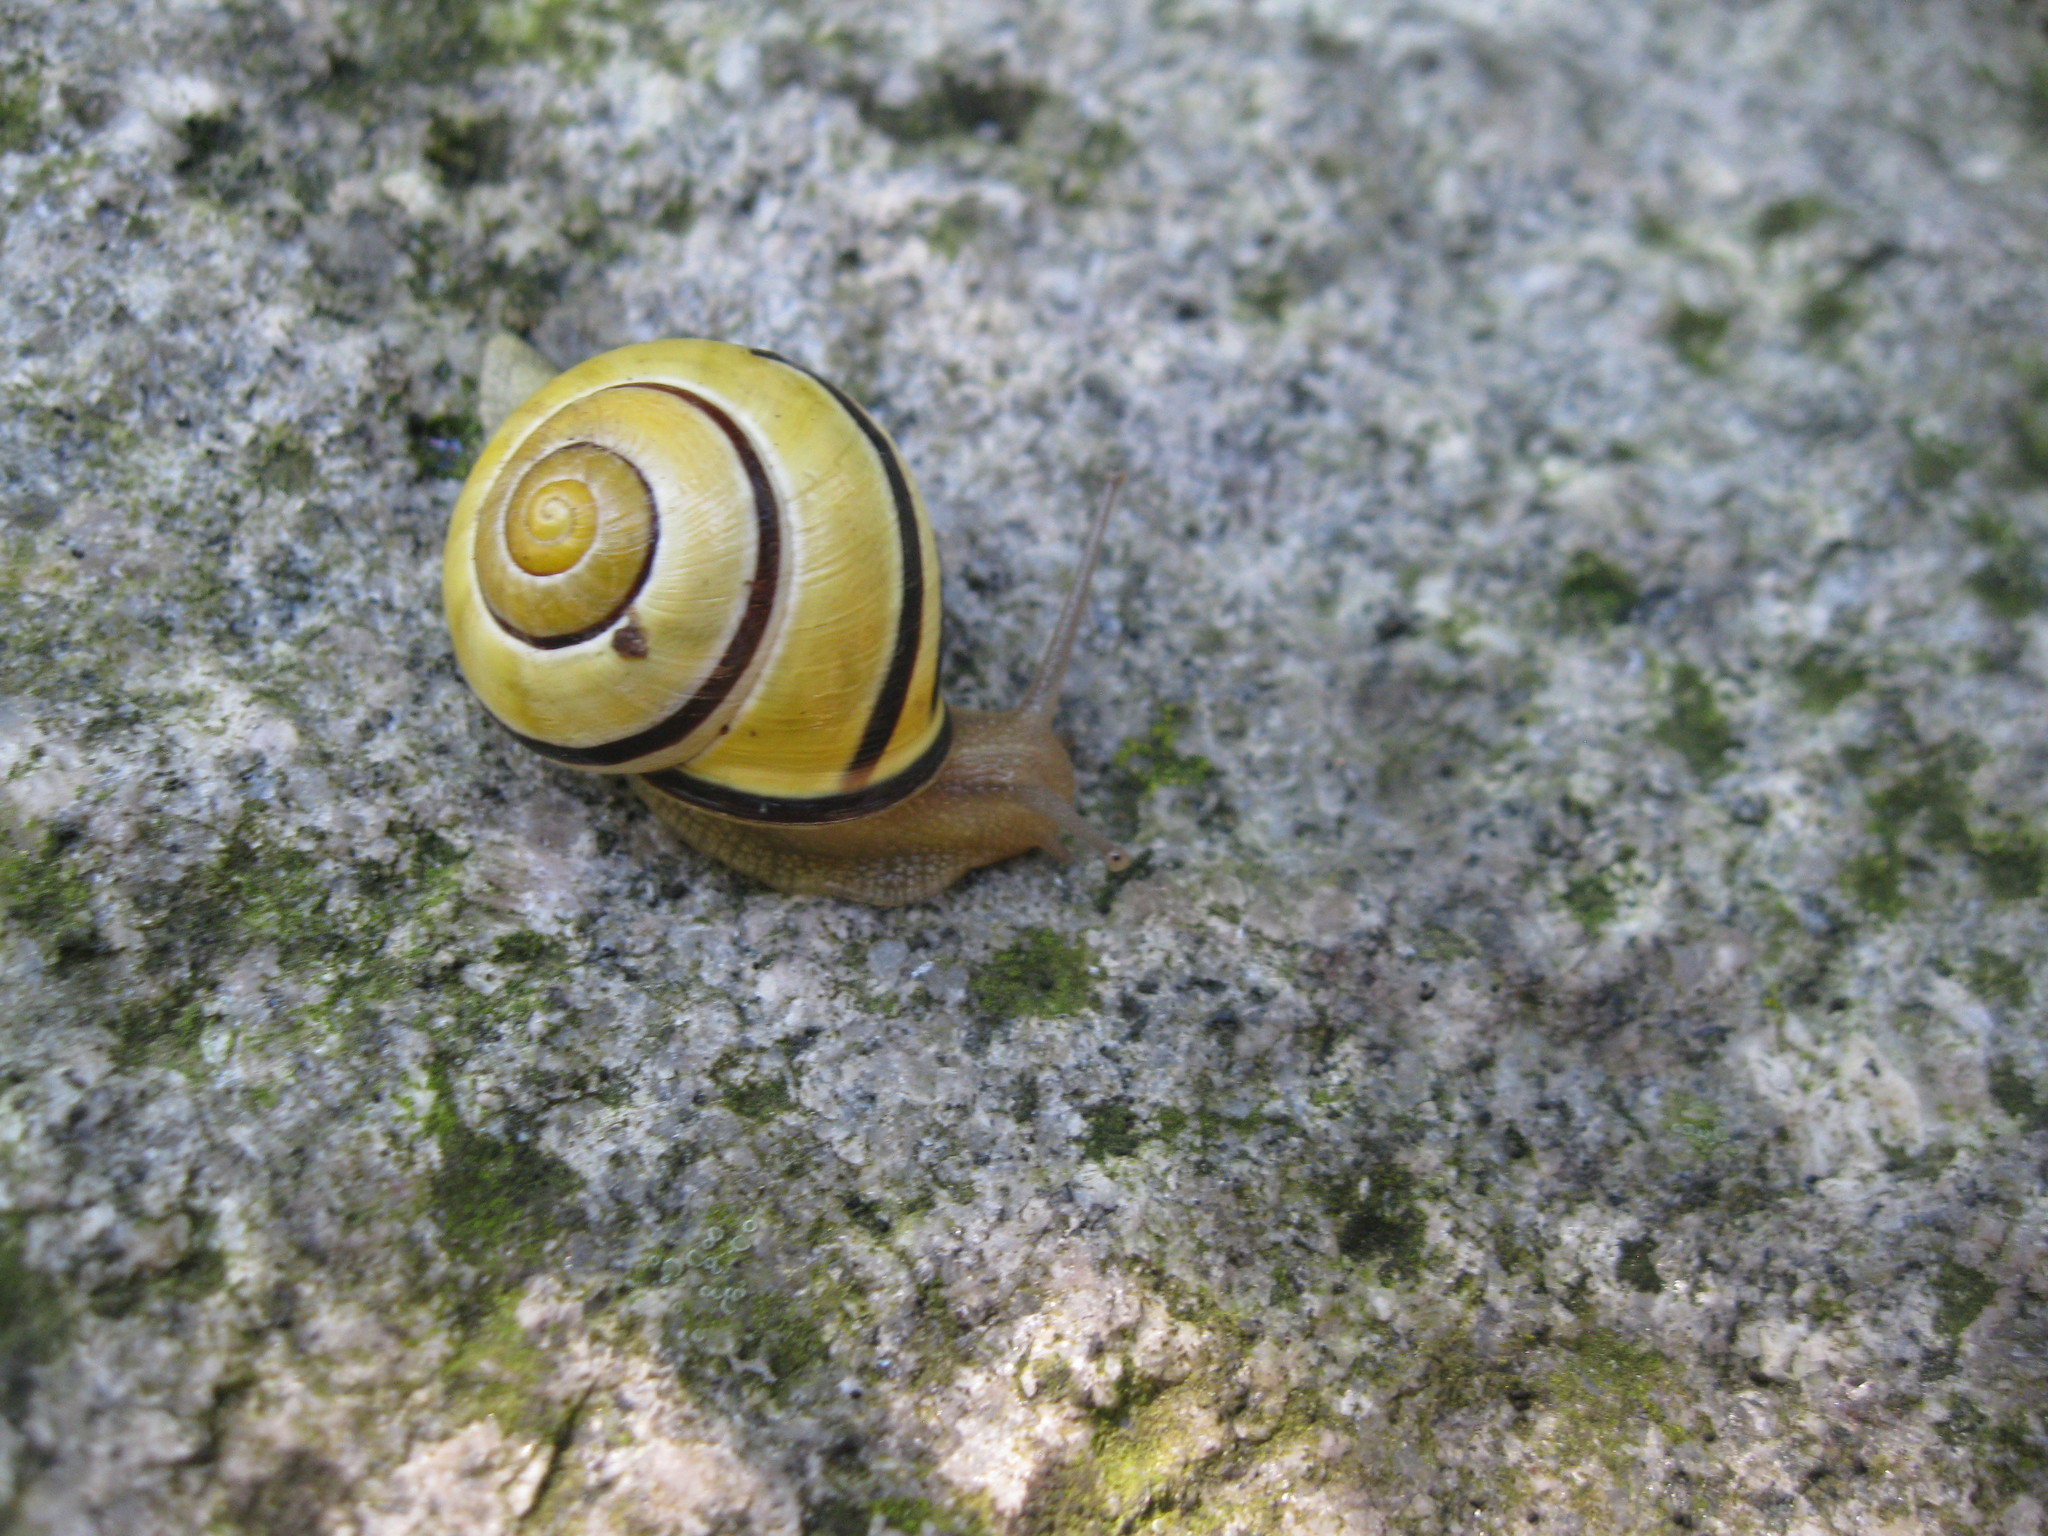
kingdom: Animalia
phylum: Mollusca
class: Gastropoda
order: Stylommatophora
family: Helicidae
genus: Cepaea
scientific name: Cepaea nemoralis
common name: Grovesnail
